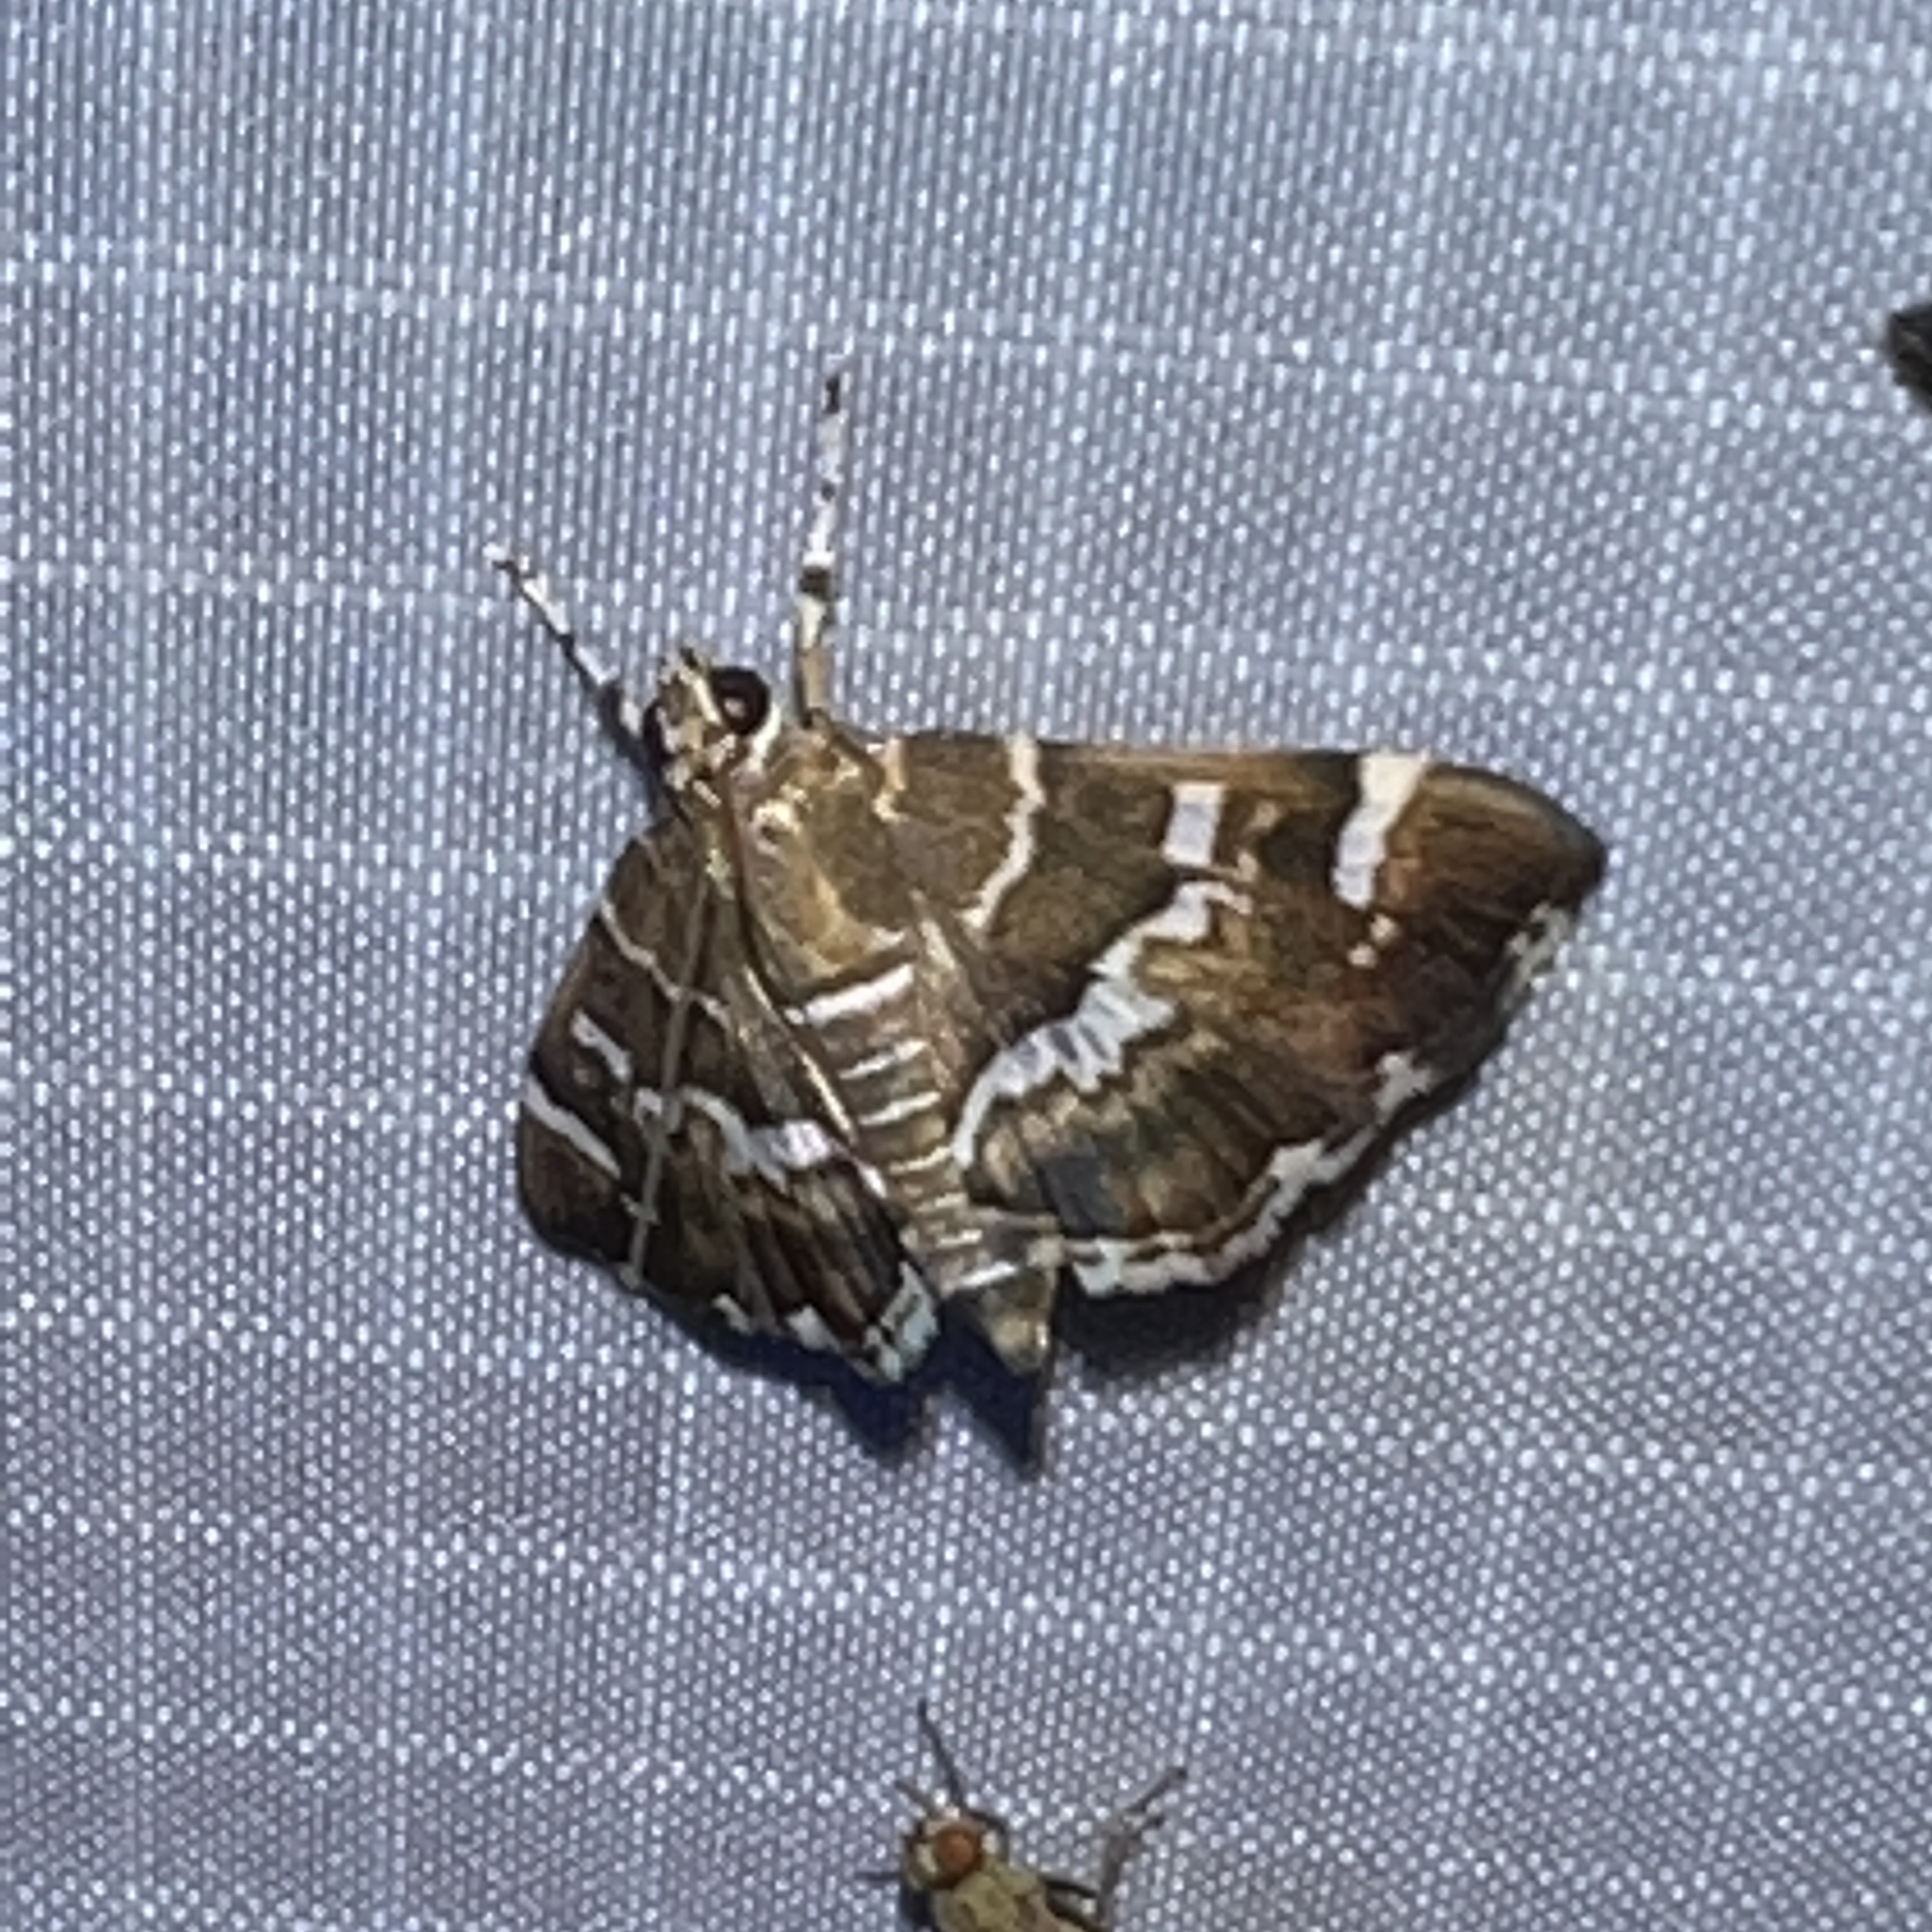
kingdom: Animalia
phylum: Arthropoda
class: Insecta
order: Lepidoptera
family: Crambidae
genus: Hymenia
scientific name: Hymenia perspectalis
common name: Spotted beet webworm
